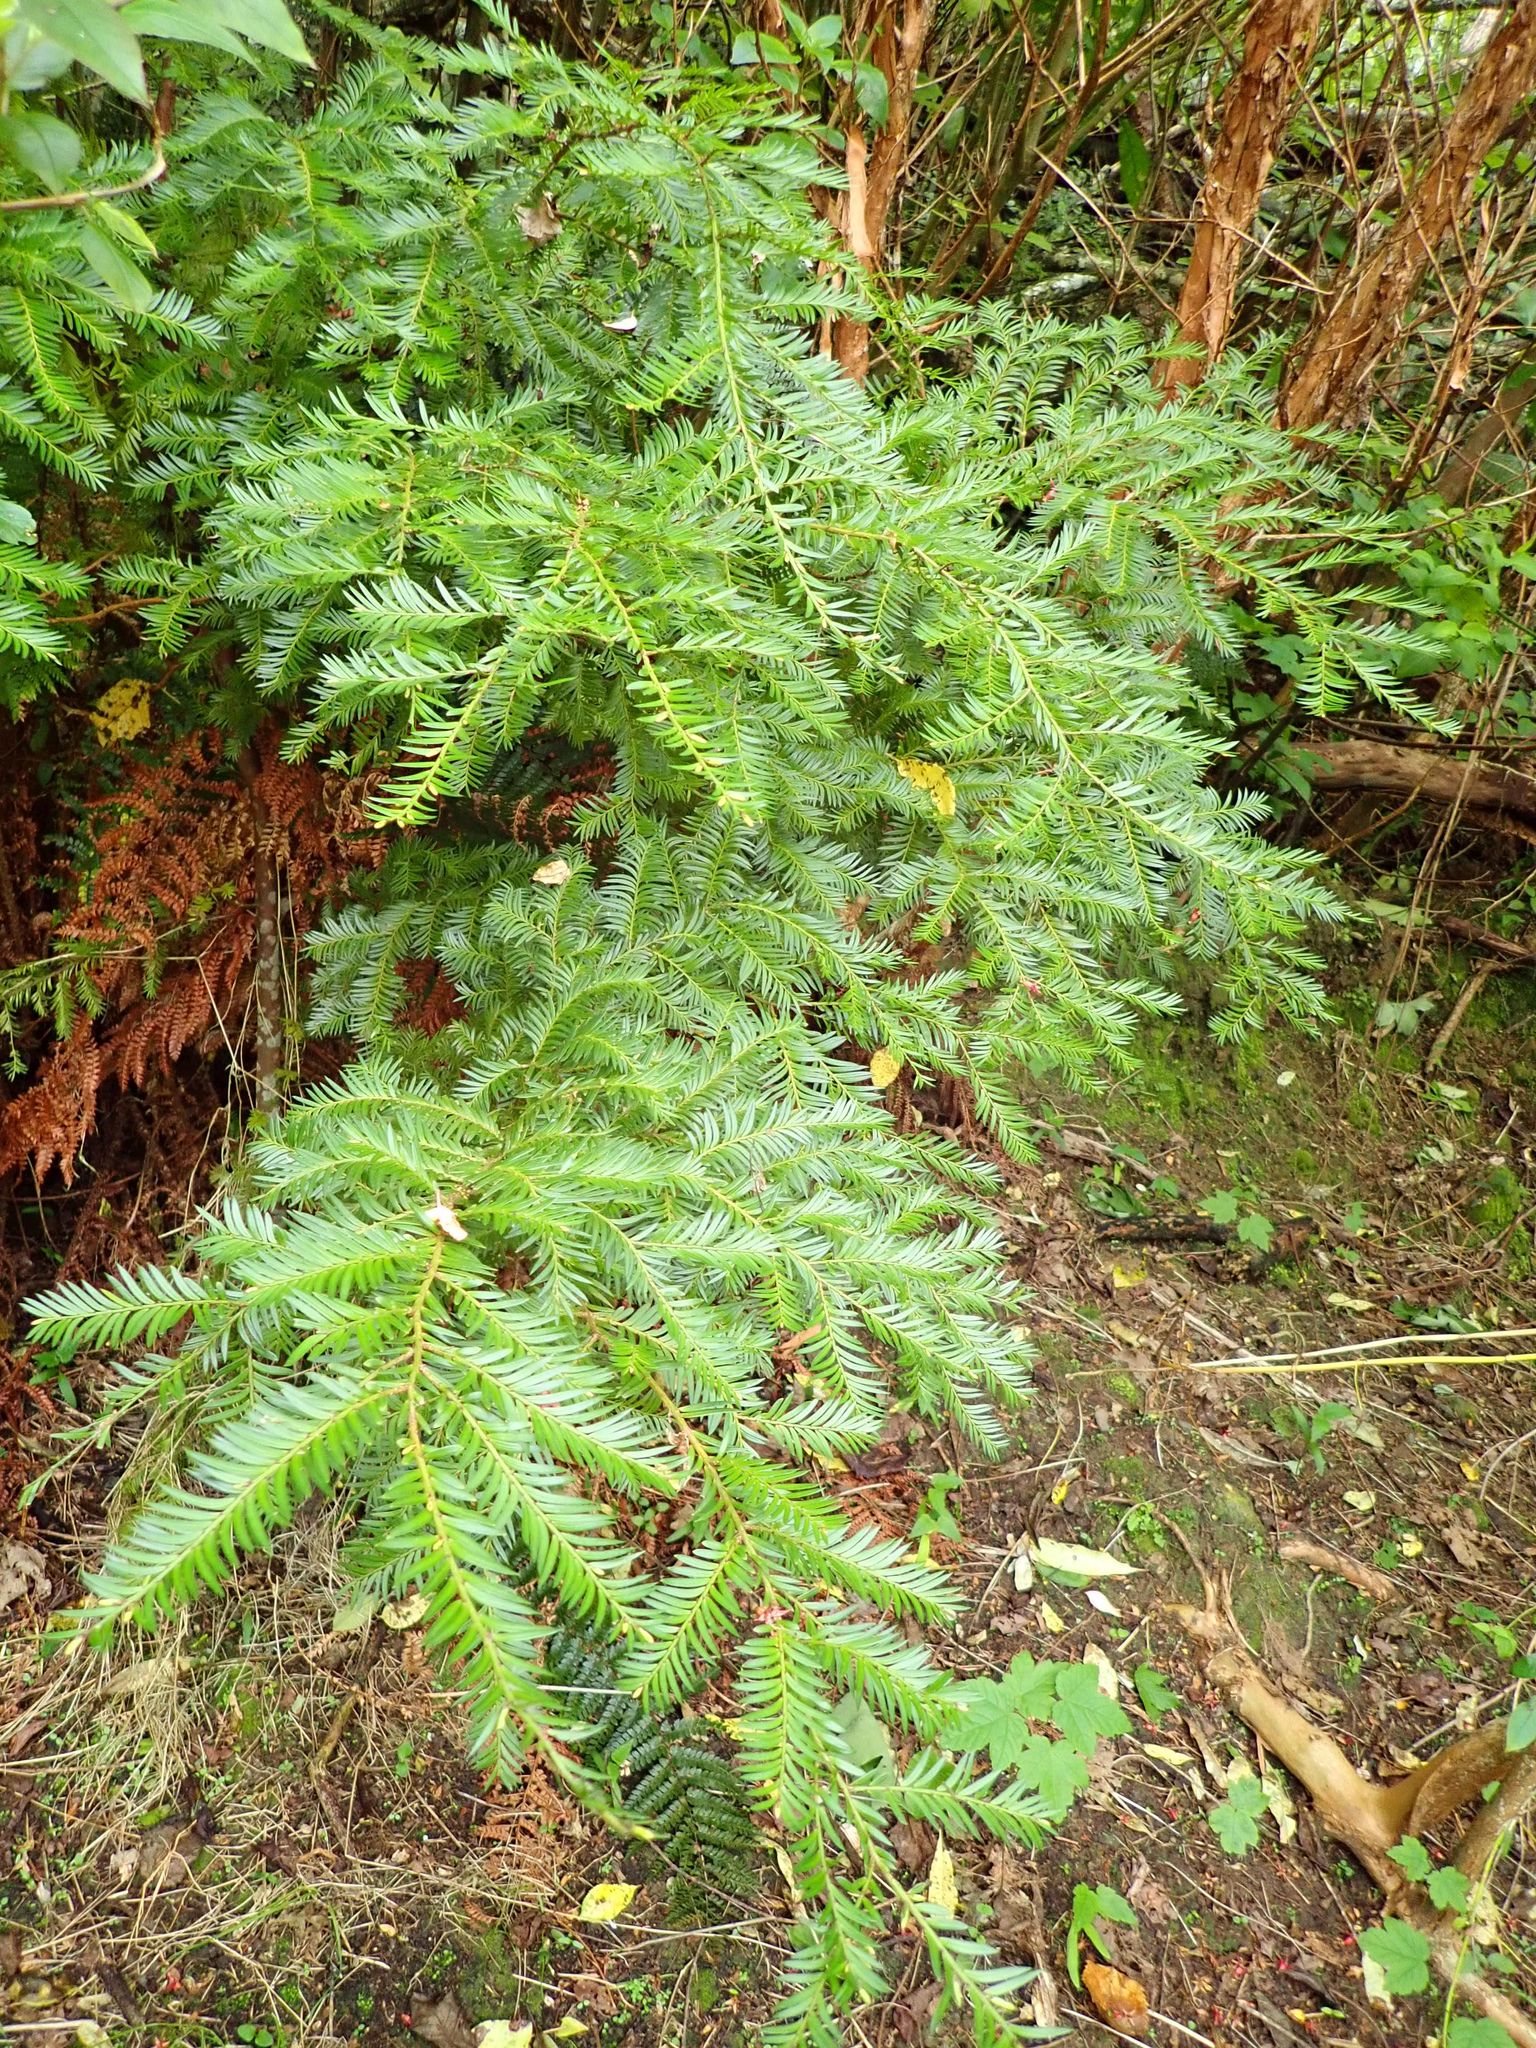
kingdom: Plantae
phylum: Tracheophyta
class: Pinopsida
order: Pinales
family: Podocarpaceae
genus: Prumnopitys
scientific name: Prumnopitys ferruginea
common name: Brown pine
